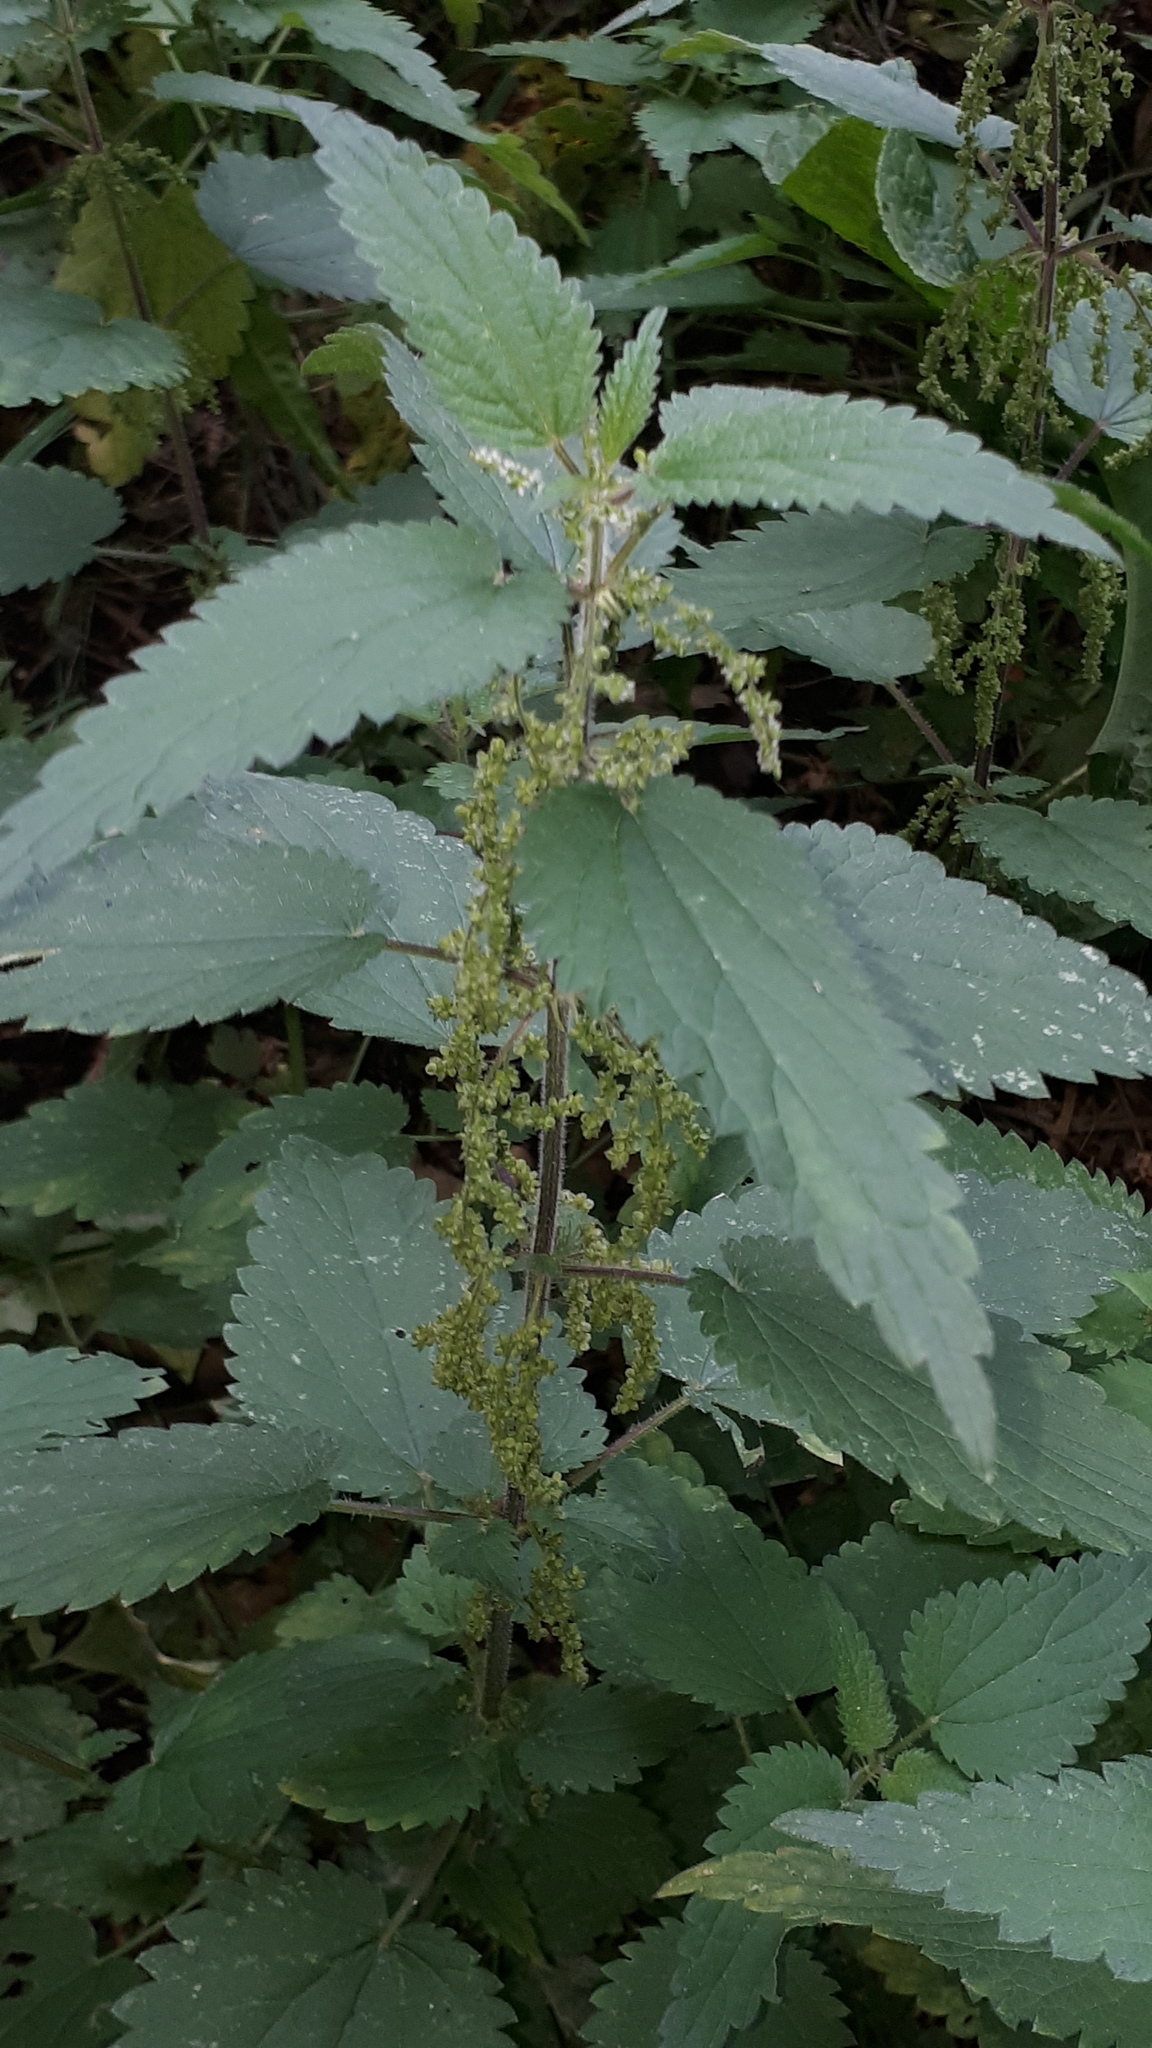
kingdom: Plantae
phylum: Tracheophyta
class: Magnoliopsida
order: Rosales
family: Urticaceae
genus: Urtica
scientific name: Urtica dioica
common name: Common nettle
